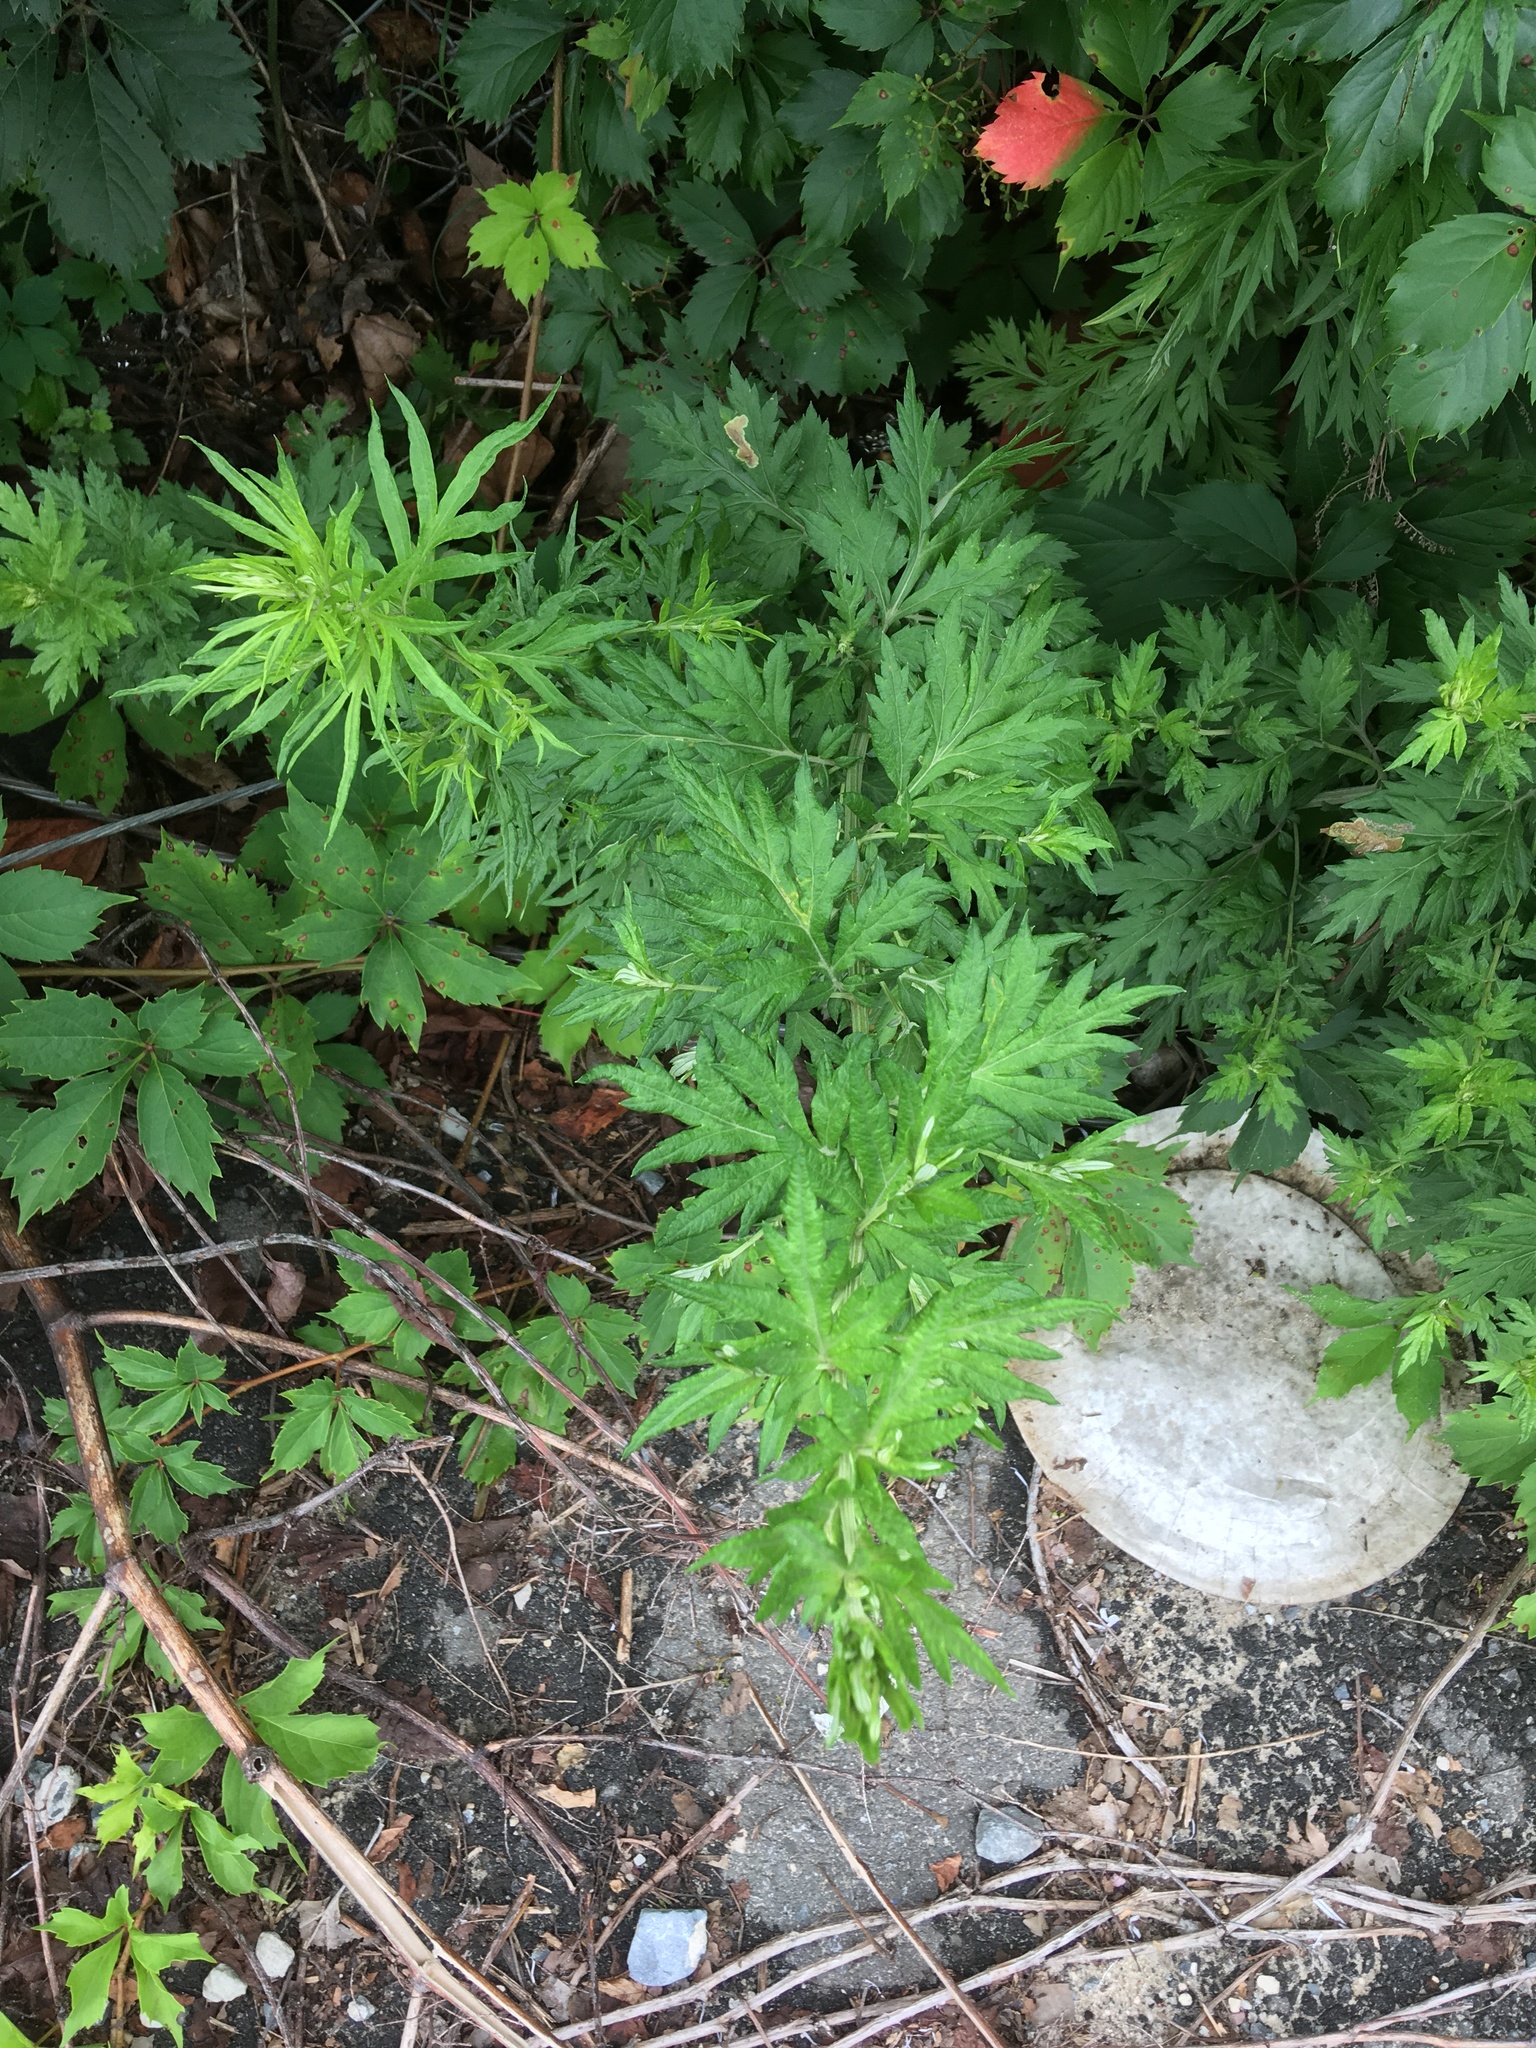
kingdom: Plantae
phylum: Tracheophyta
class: Magnoliopsida
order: Asterales
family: Asteraceae
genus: Artemisia
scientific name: Artemisia vulgaris
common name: Mugwort
